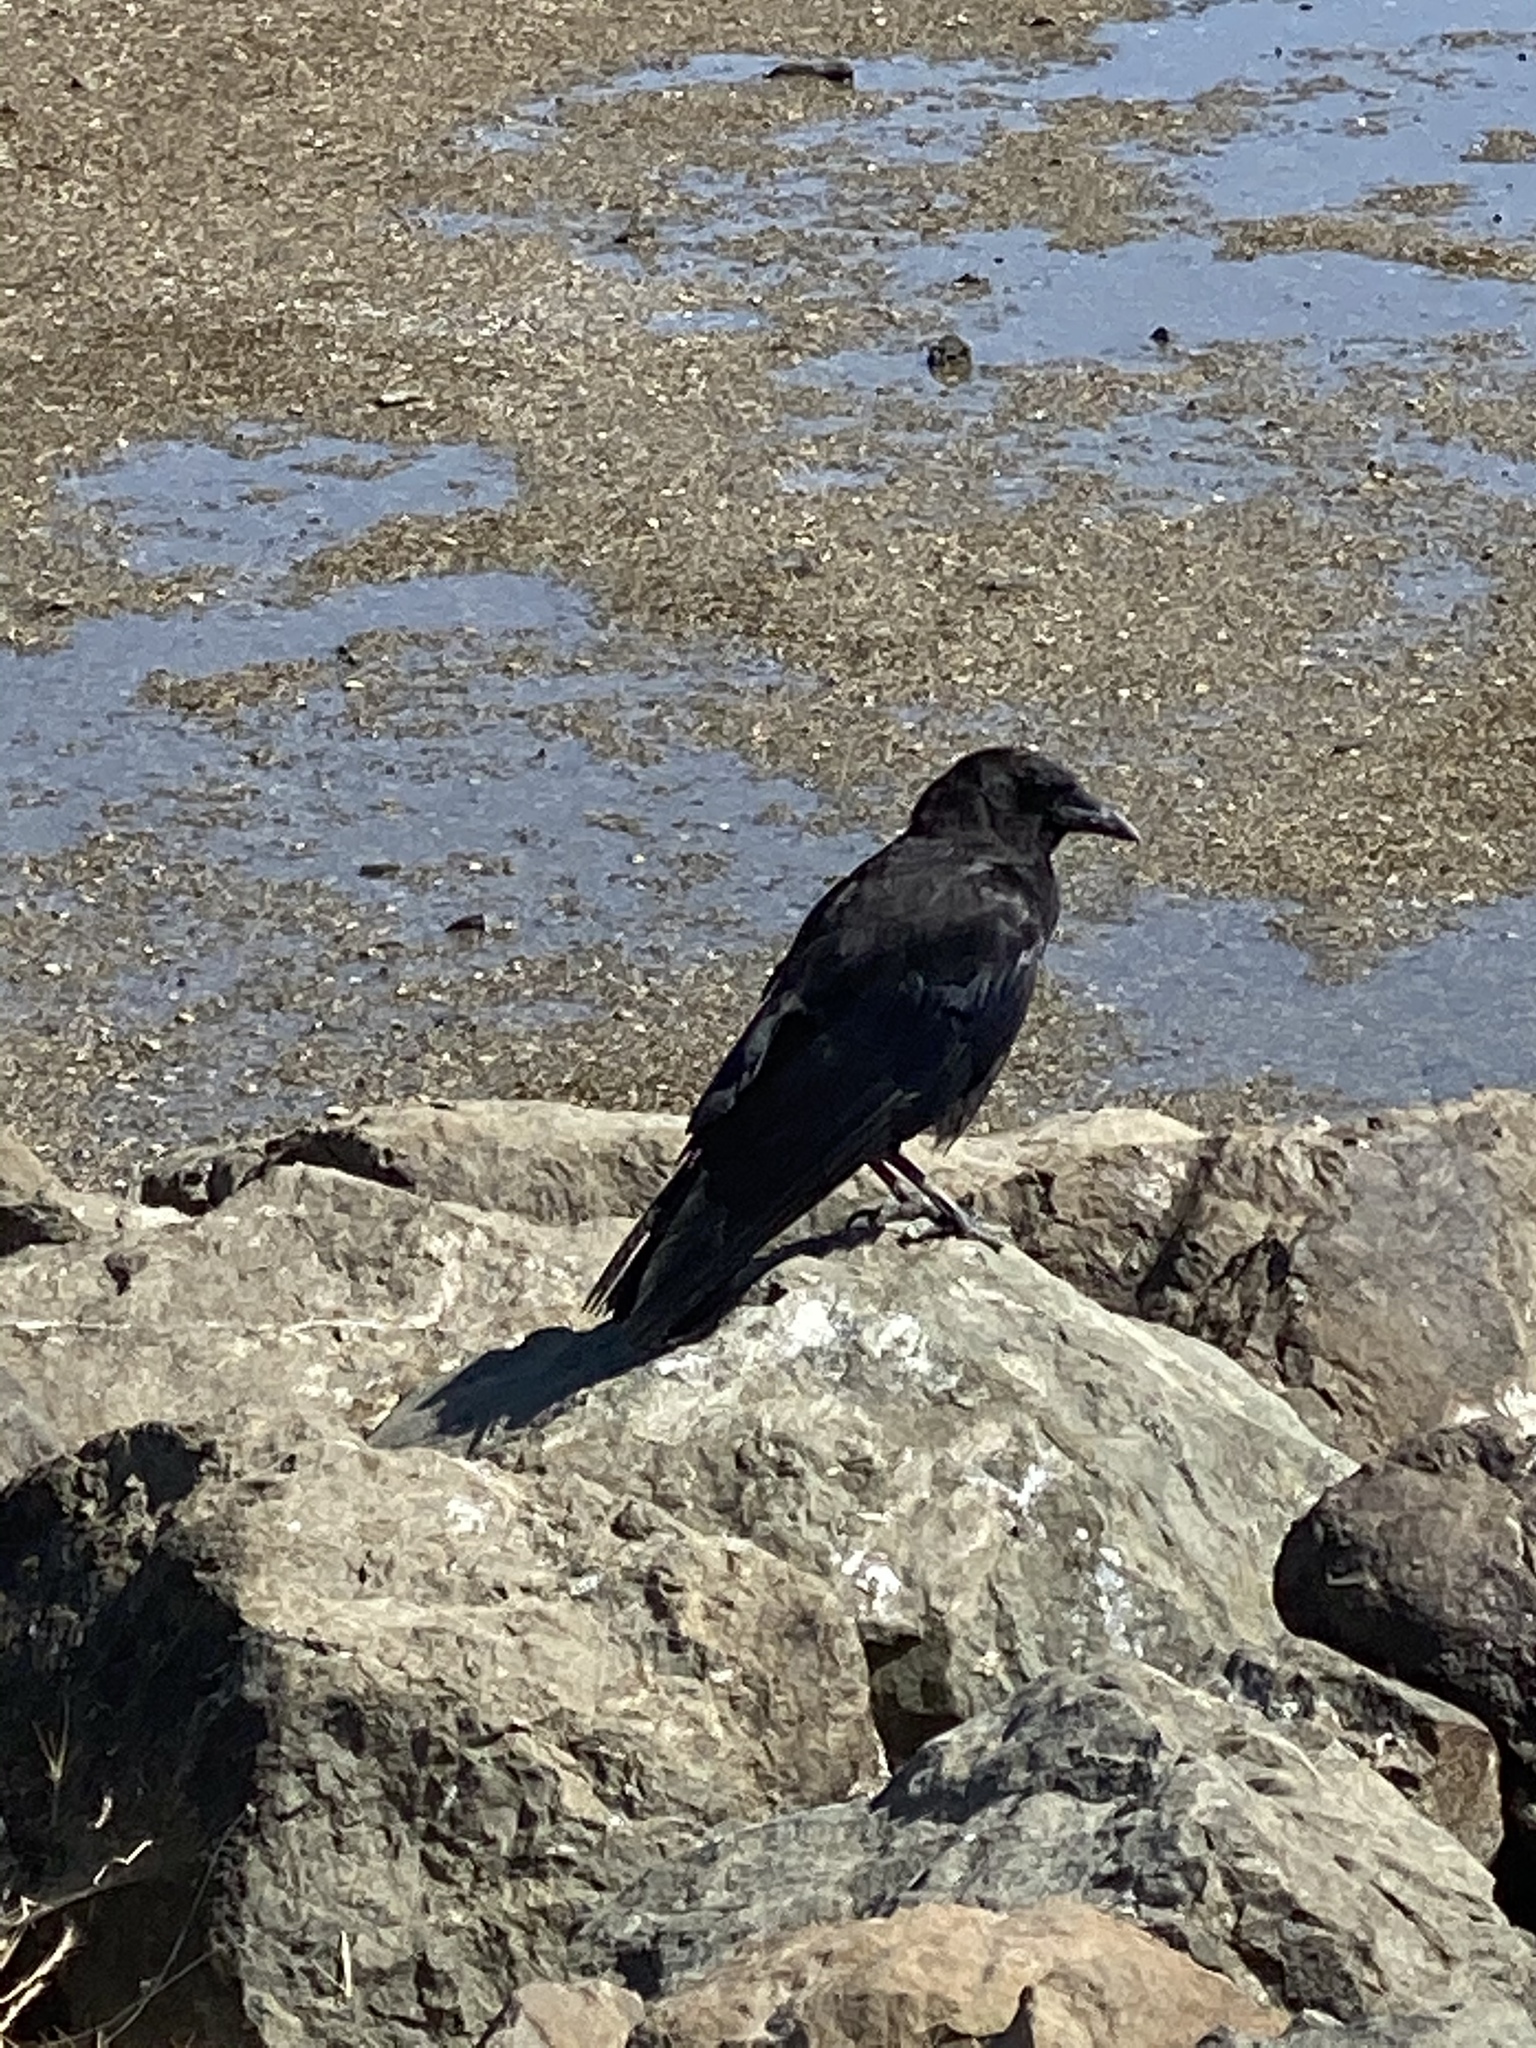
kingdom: Animalia
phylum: Chordata
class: Aves
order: Passeriformes
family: Corvidae
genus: Corvus
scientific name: Corvus brachyrhynchos
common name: American crow
